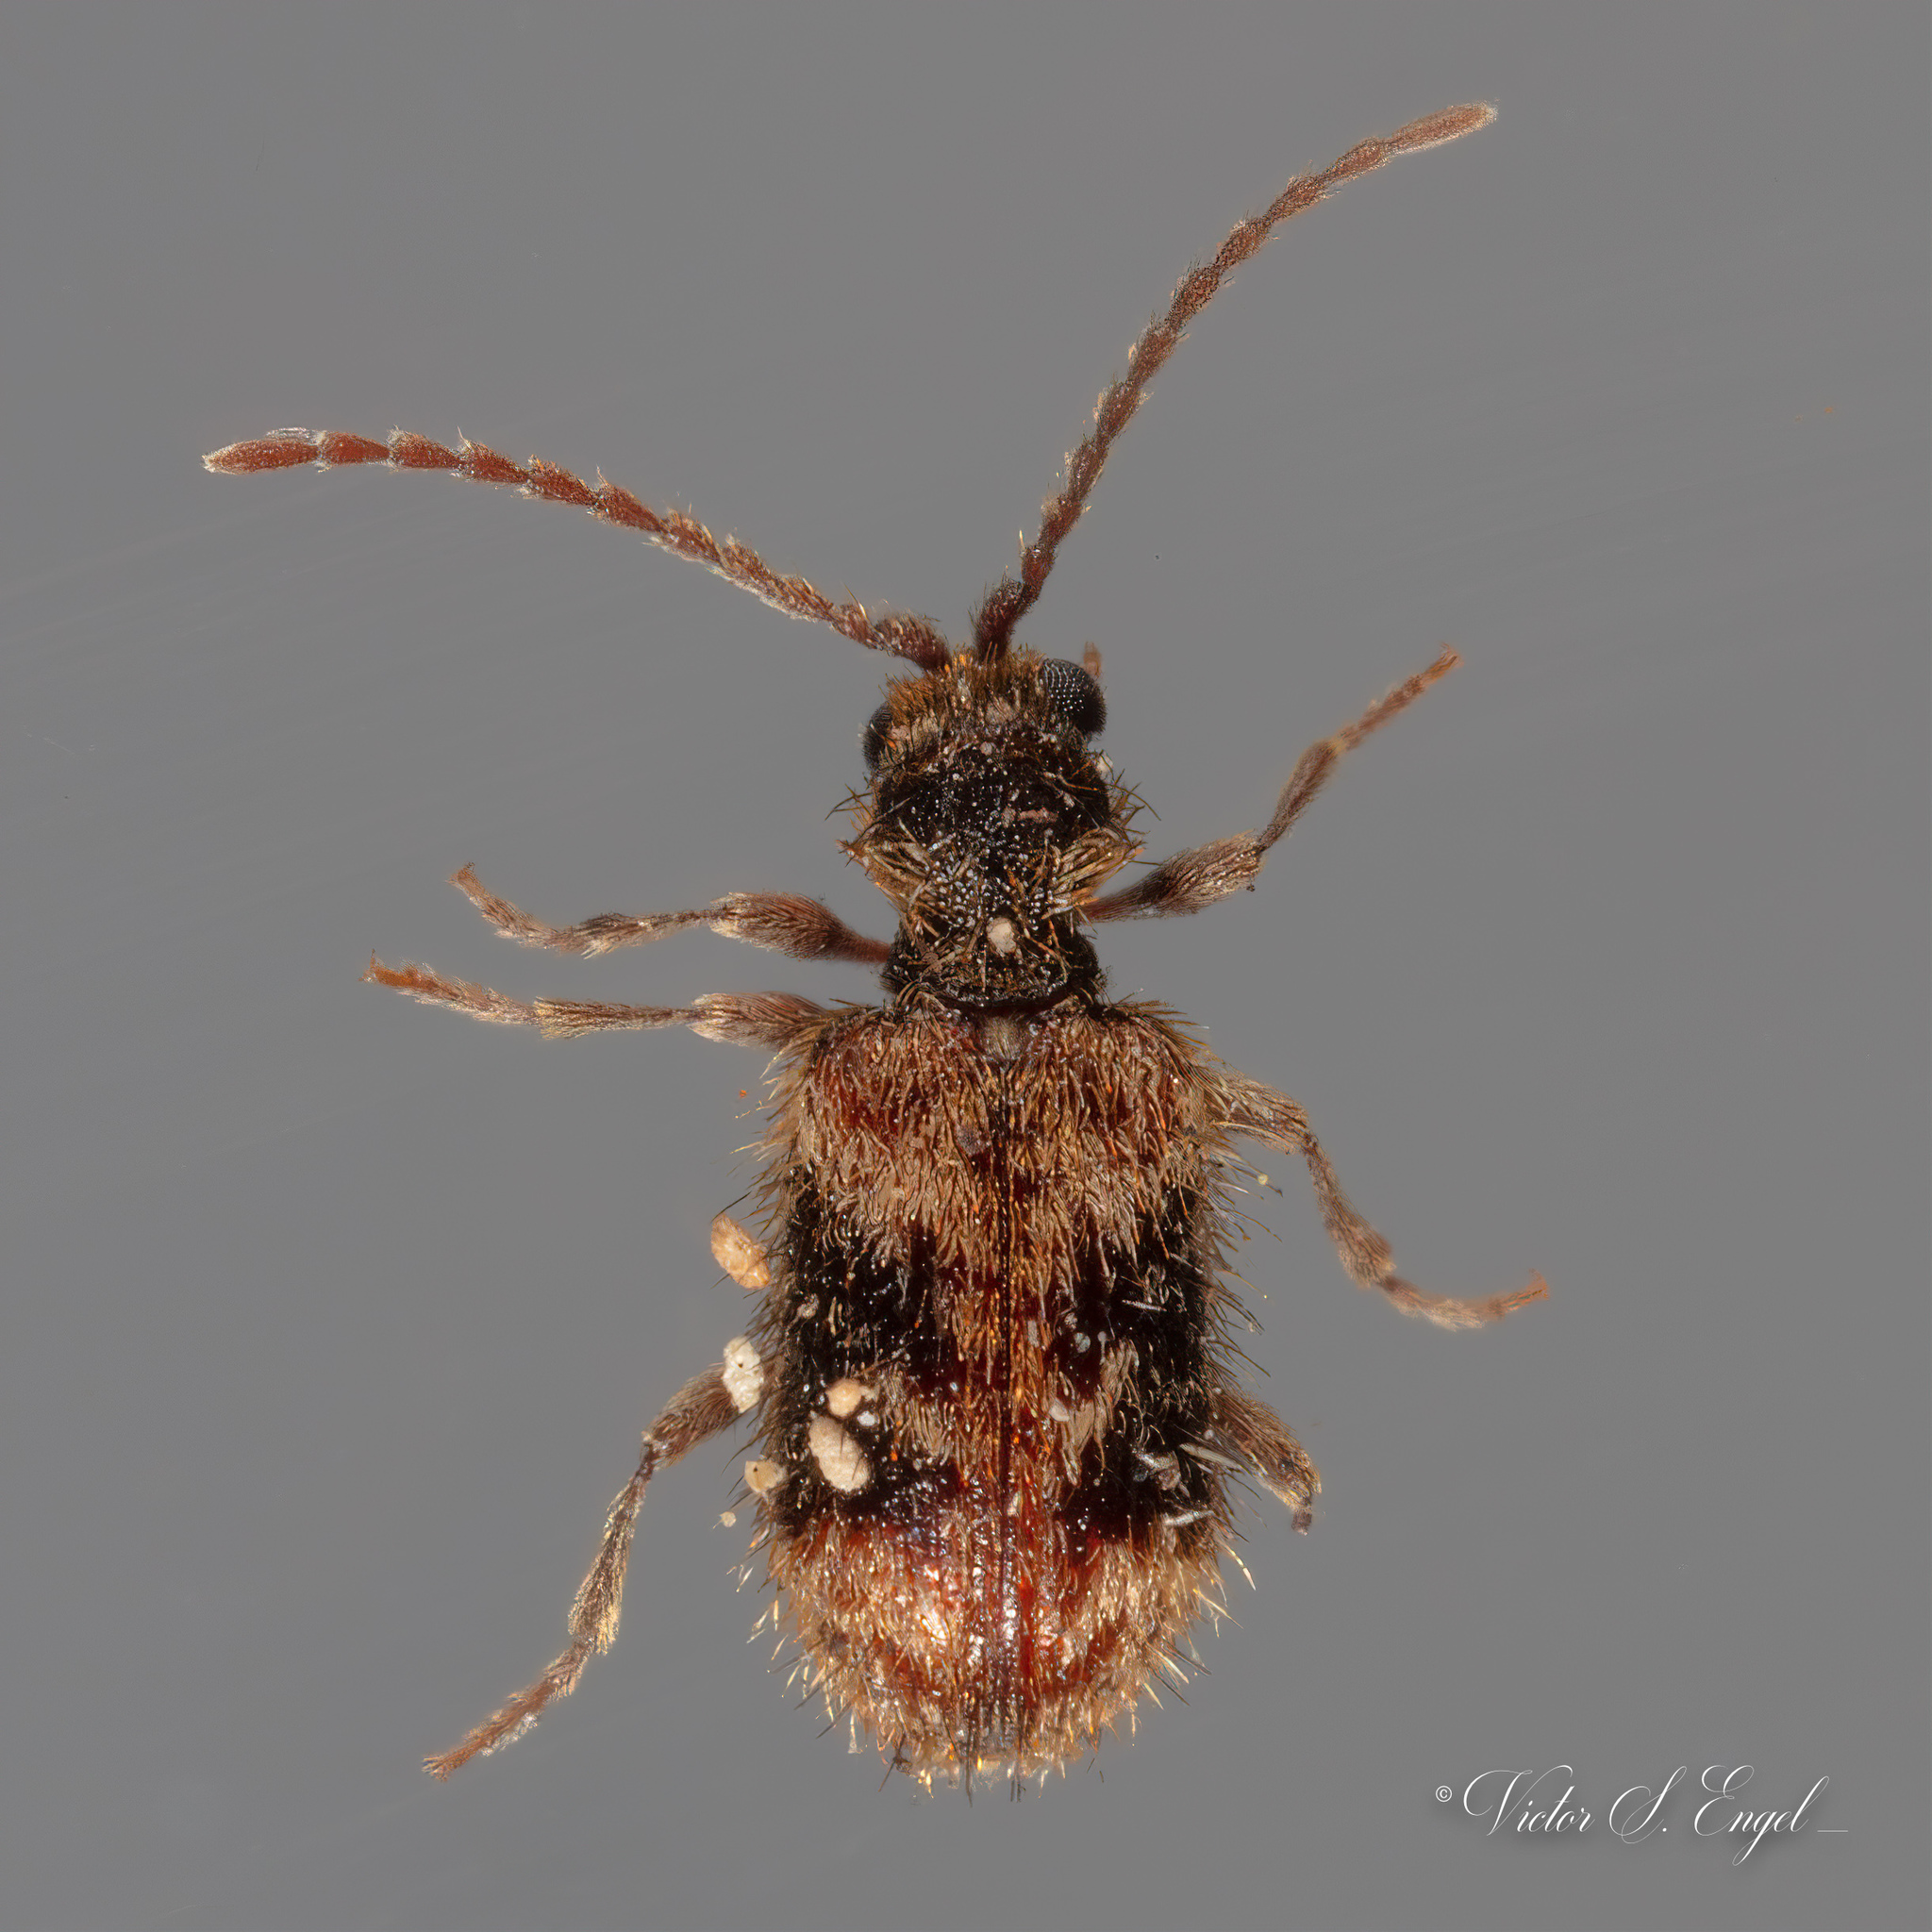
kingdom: Animalia
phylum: Arthropoda
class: Insecta
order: Coleoptera
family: Ptinidae
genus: Ptinus
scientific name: Ptinus texanus
